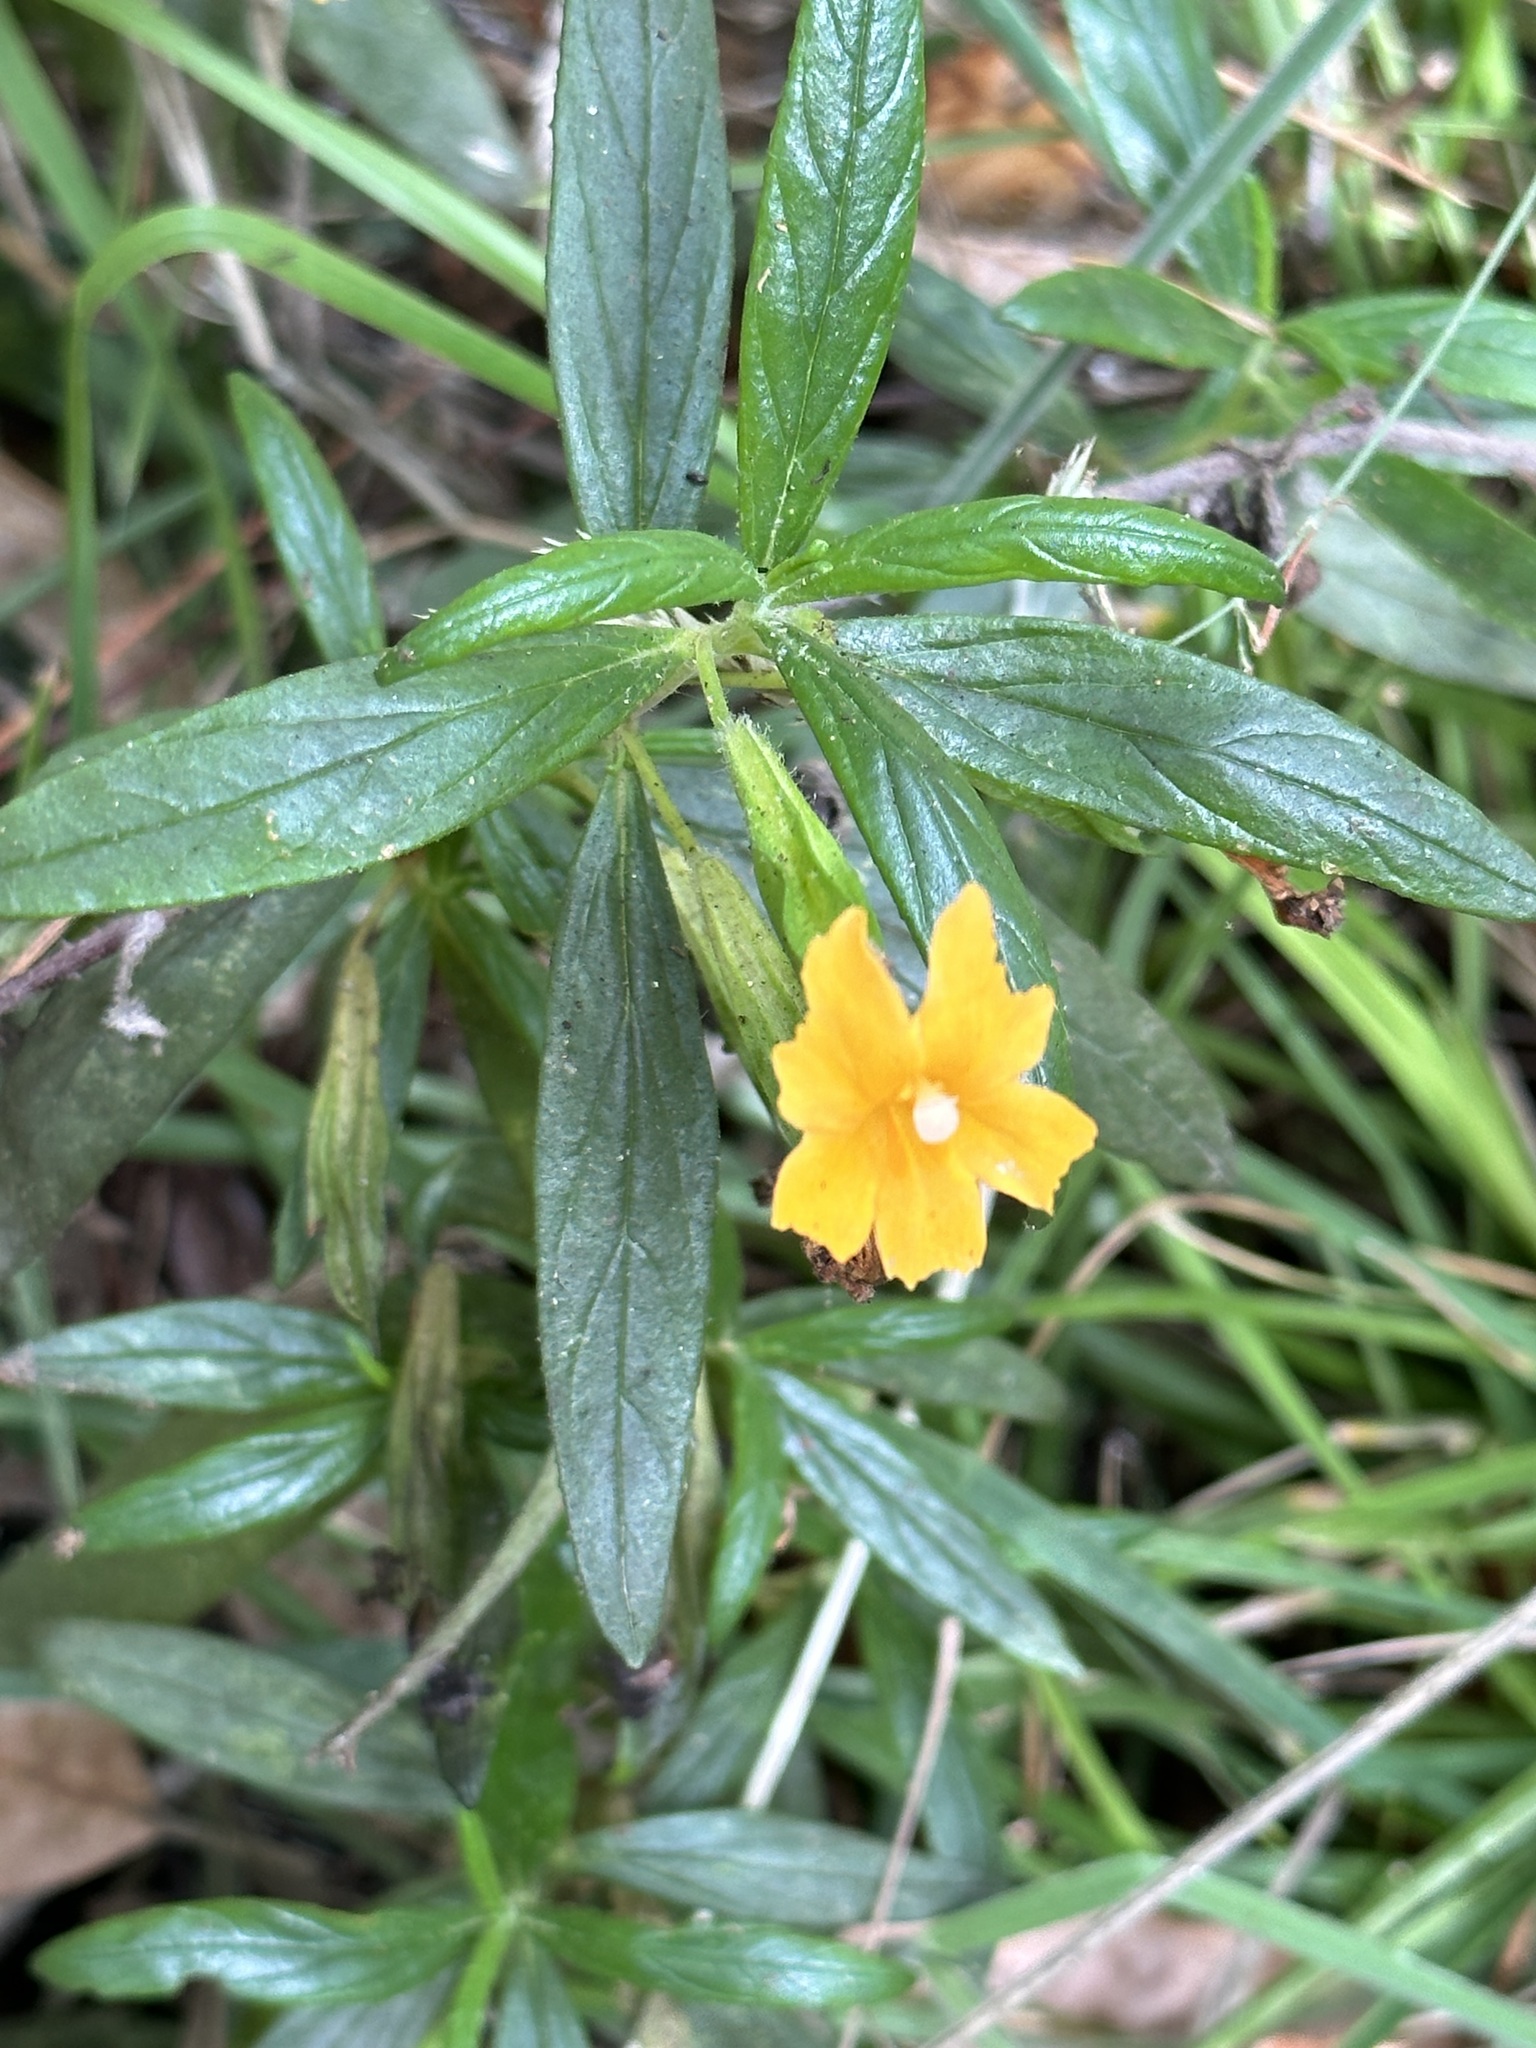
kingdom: Plantae
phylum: Tracheophyta
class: Magnoliopsida
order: Lamiales
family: Phrymaceae
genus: Diplacus
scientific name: Diplacus aurantiacus
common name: Bush monkey-flower
